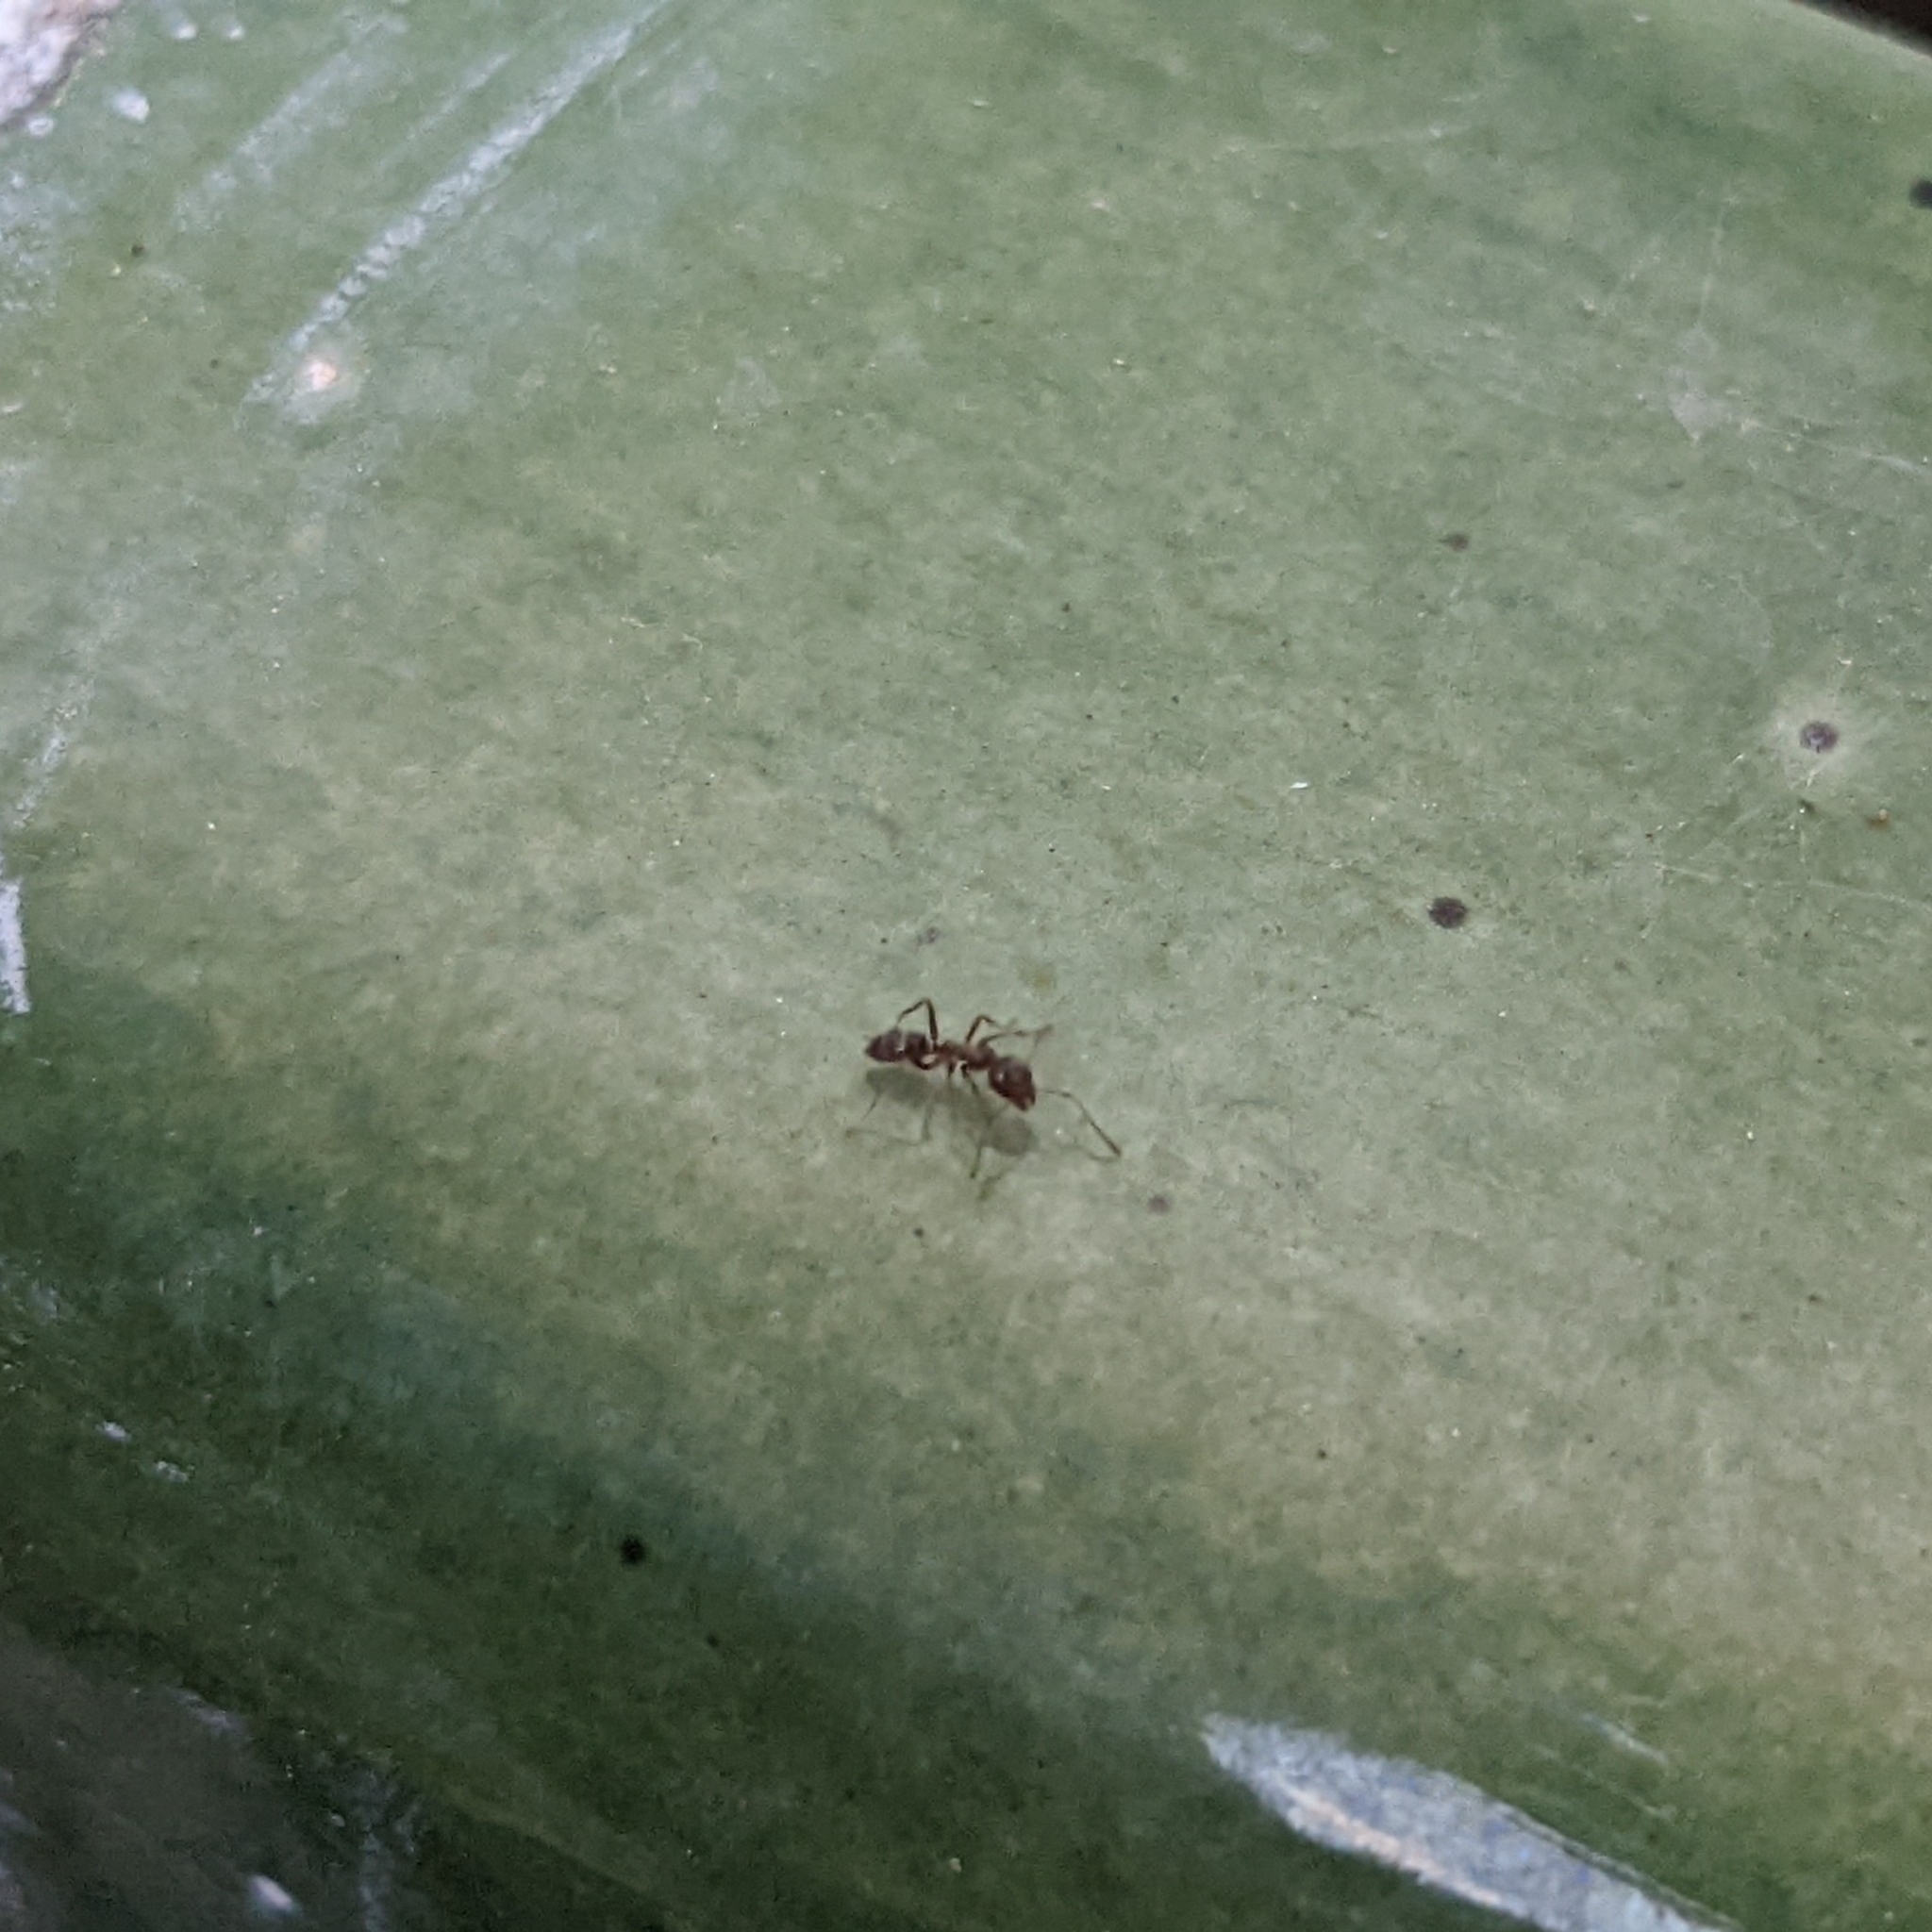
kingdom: Animalia
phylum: Arthropoda
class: Insecta
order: Hymenoptera
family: Formicidae
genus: Linepithema
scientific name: Linepithema humile
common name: Argentine ant
